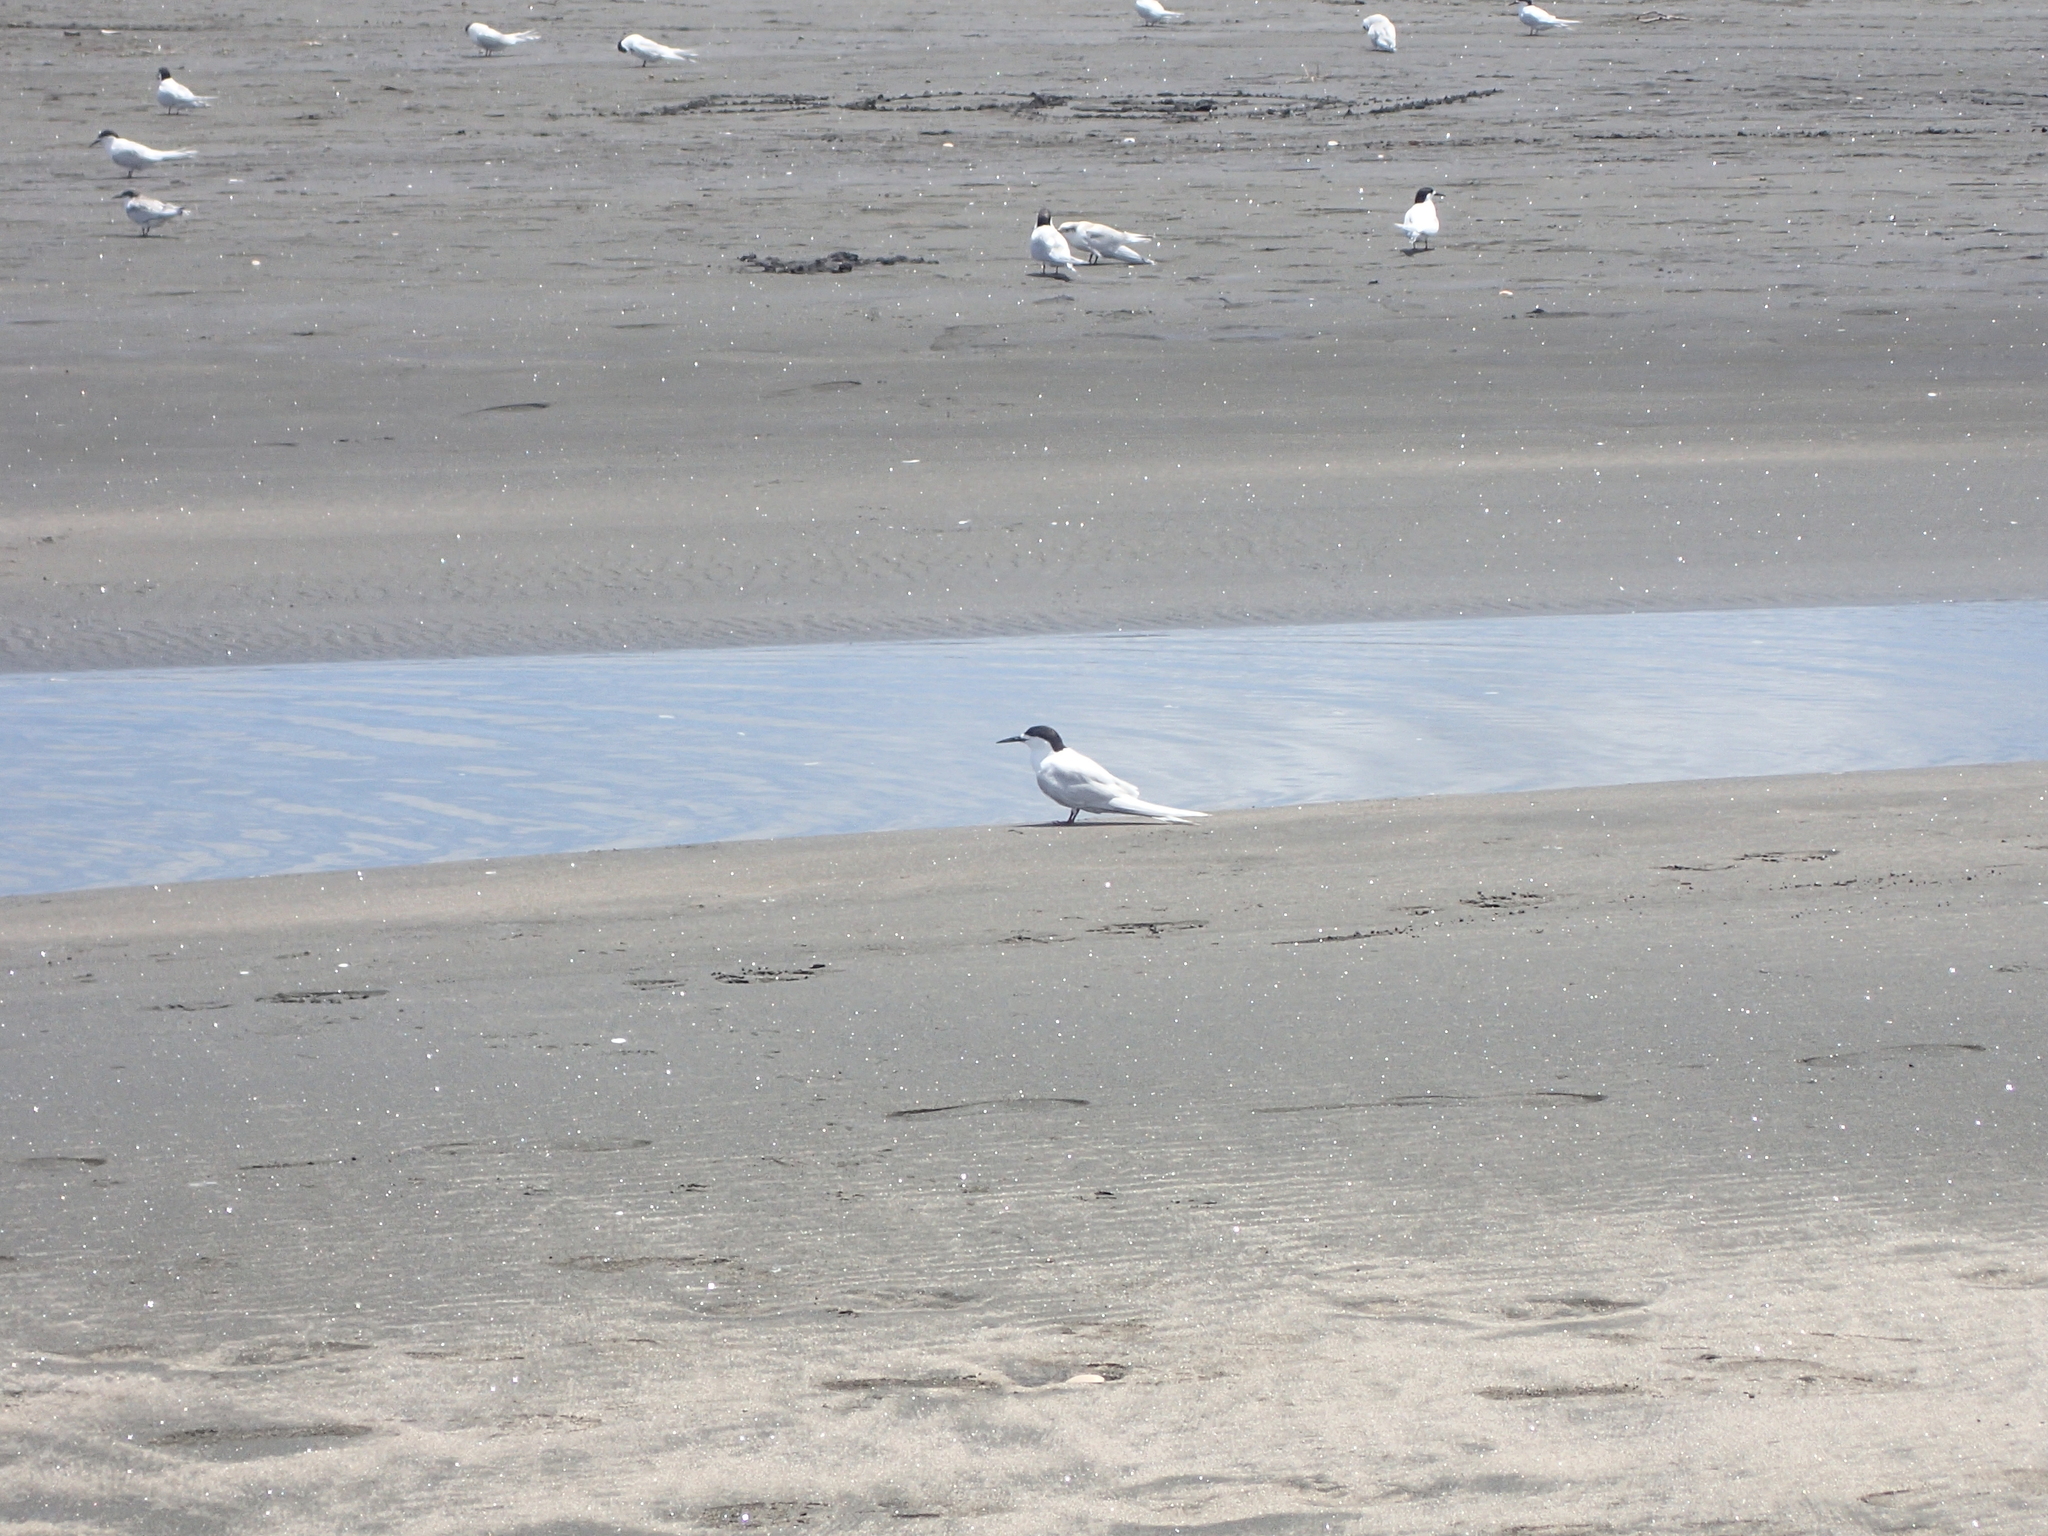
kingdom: Animalia
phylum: Chordata
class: Aves
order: Charadriiformes
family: Laridae
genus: Sterna
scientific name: Sterna striata
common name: White-fronted tern
